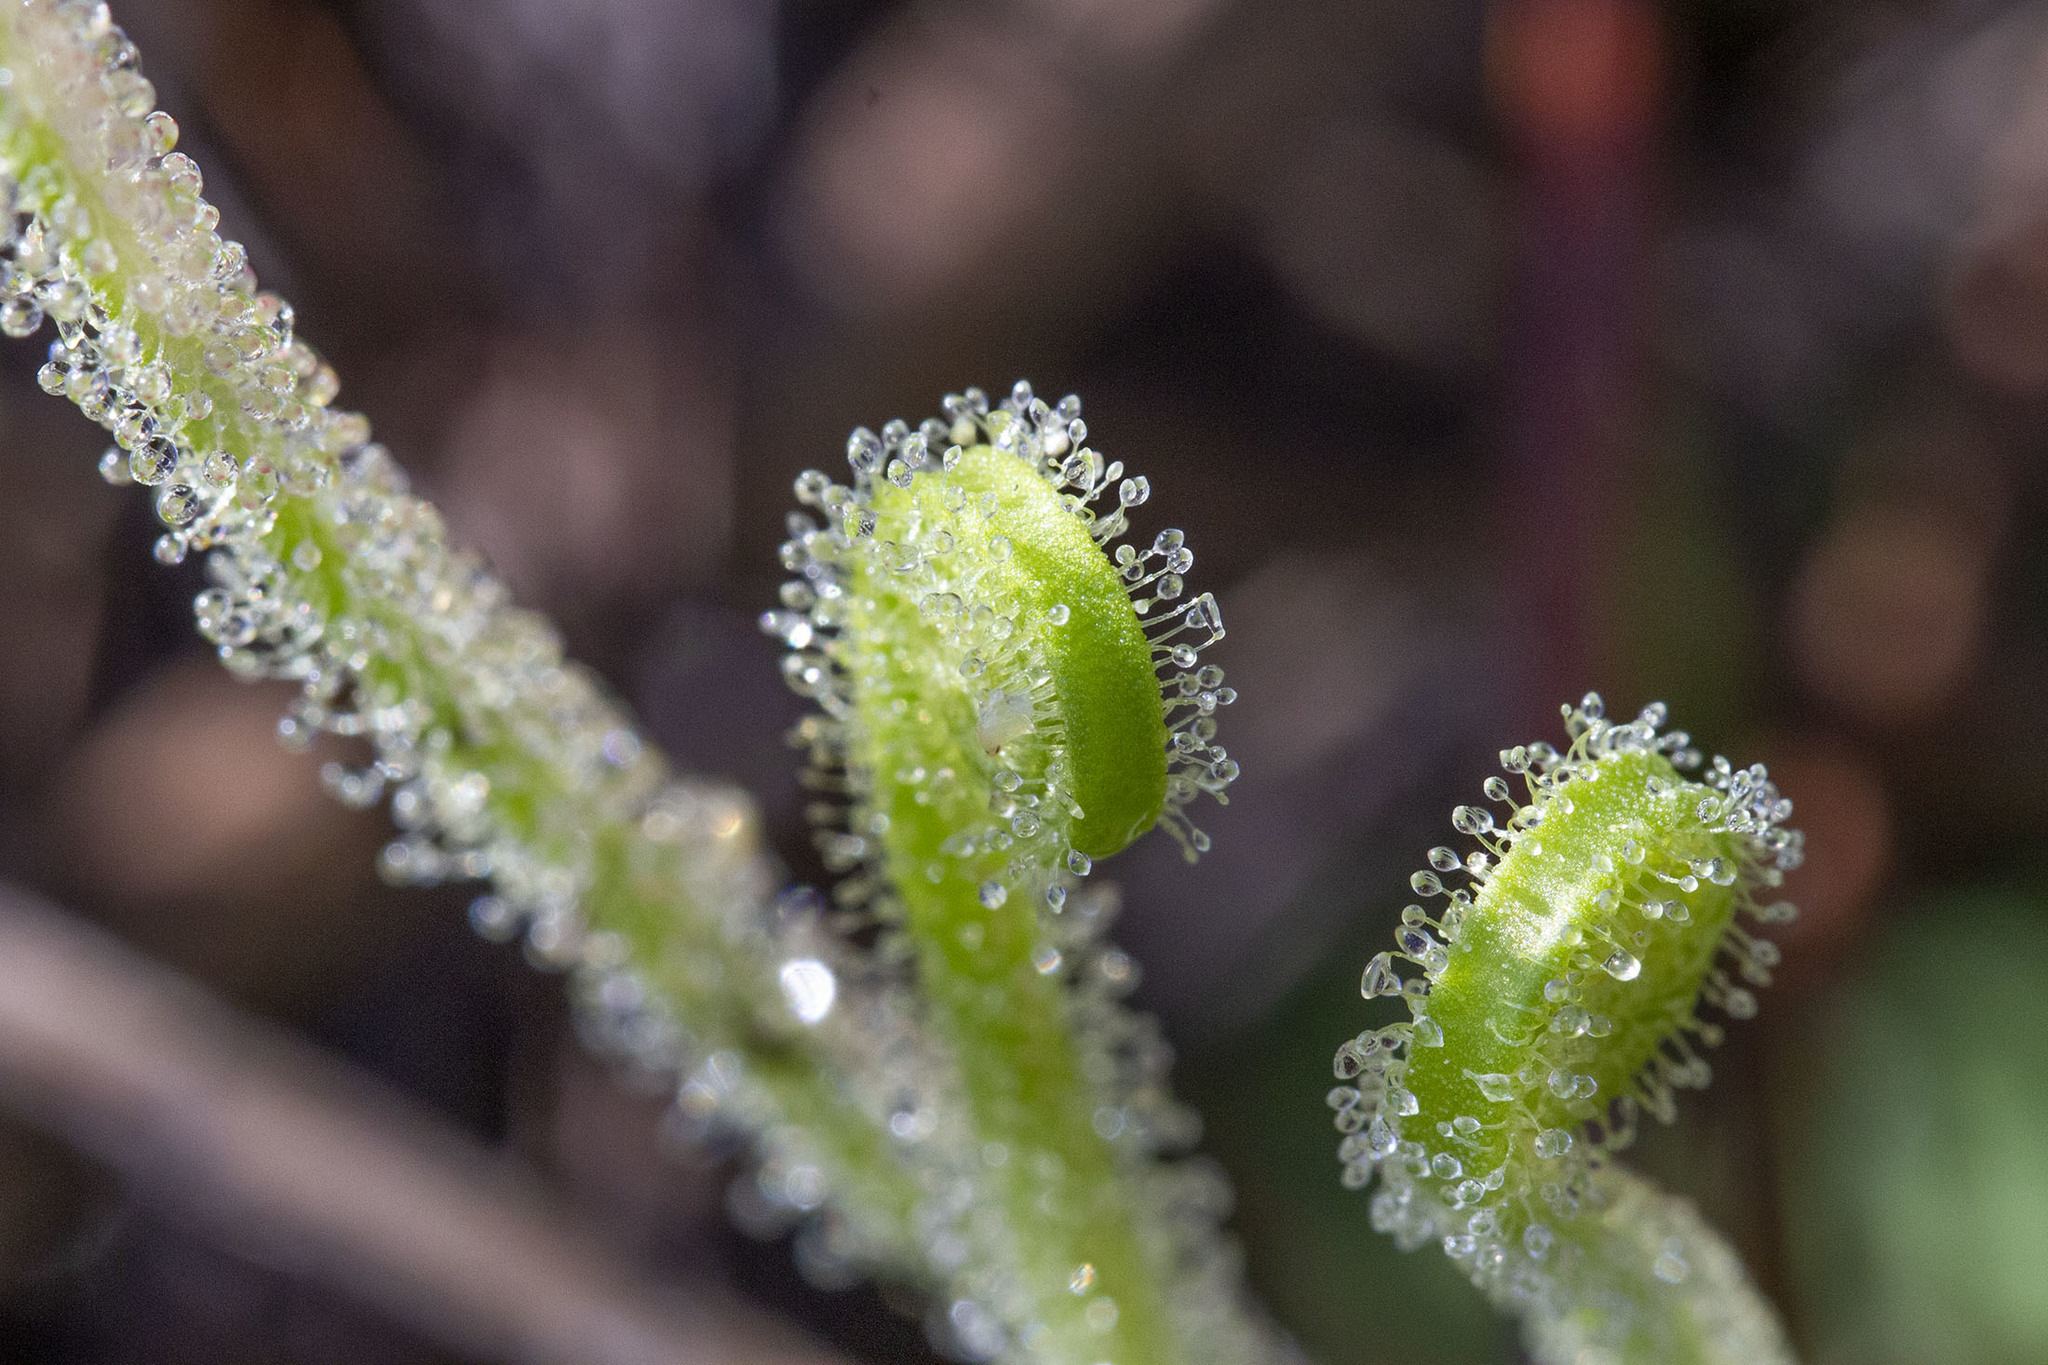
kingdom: Plantae
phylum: Tracheophyta
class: Magnoliopsida
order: Caryophyllales
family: Droseraceae
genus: Drosera
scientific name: Drosera filiformis
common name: Dew-thread
